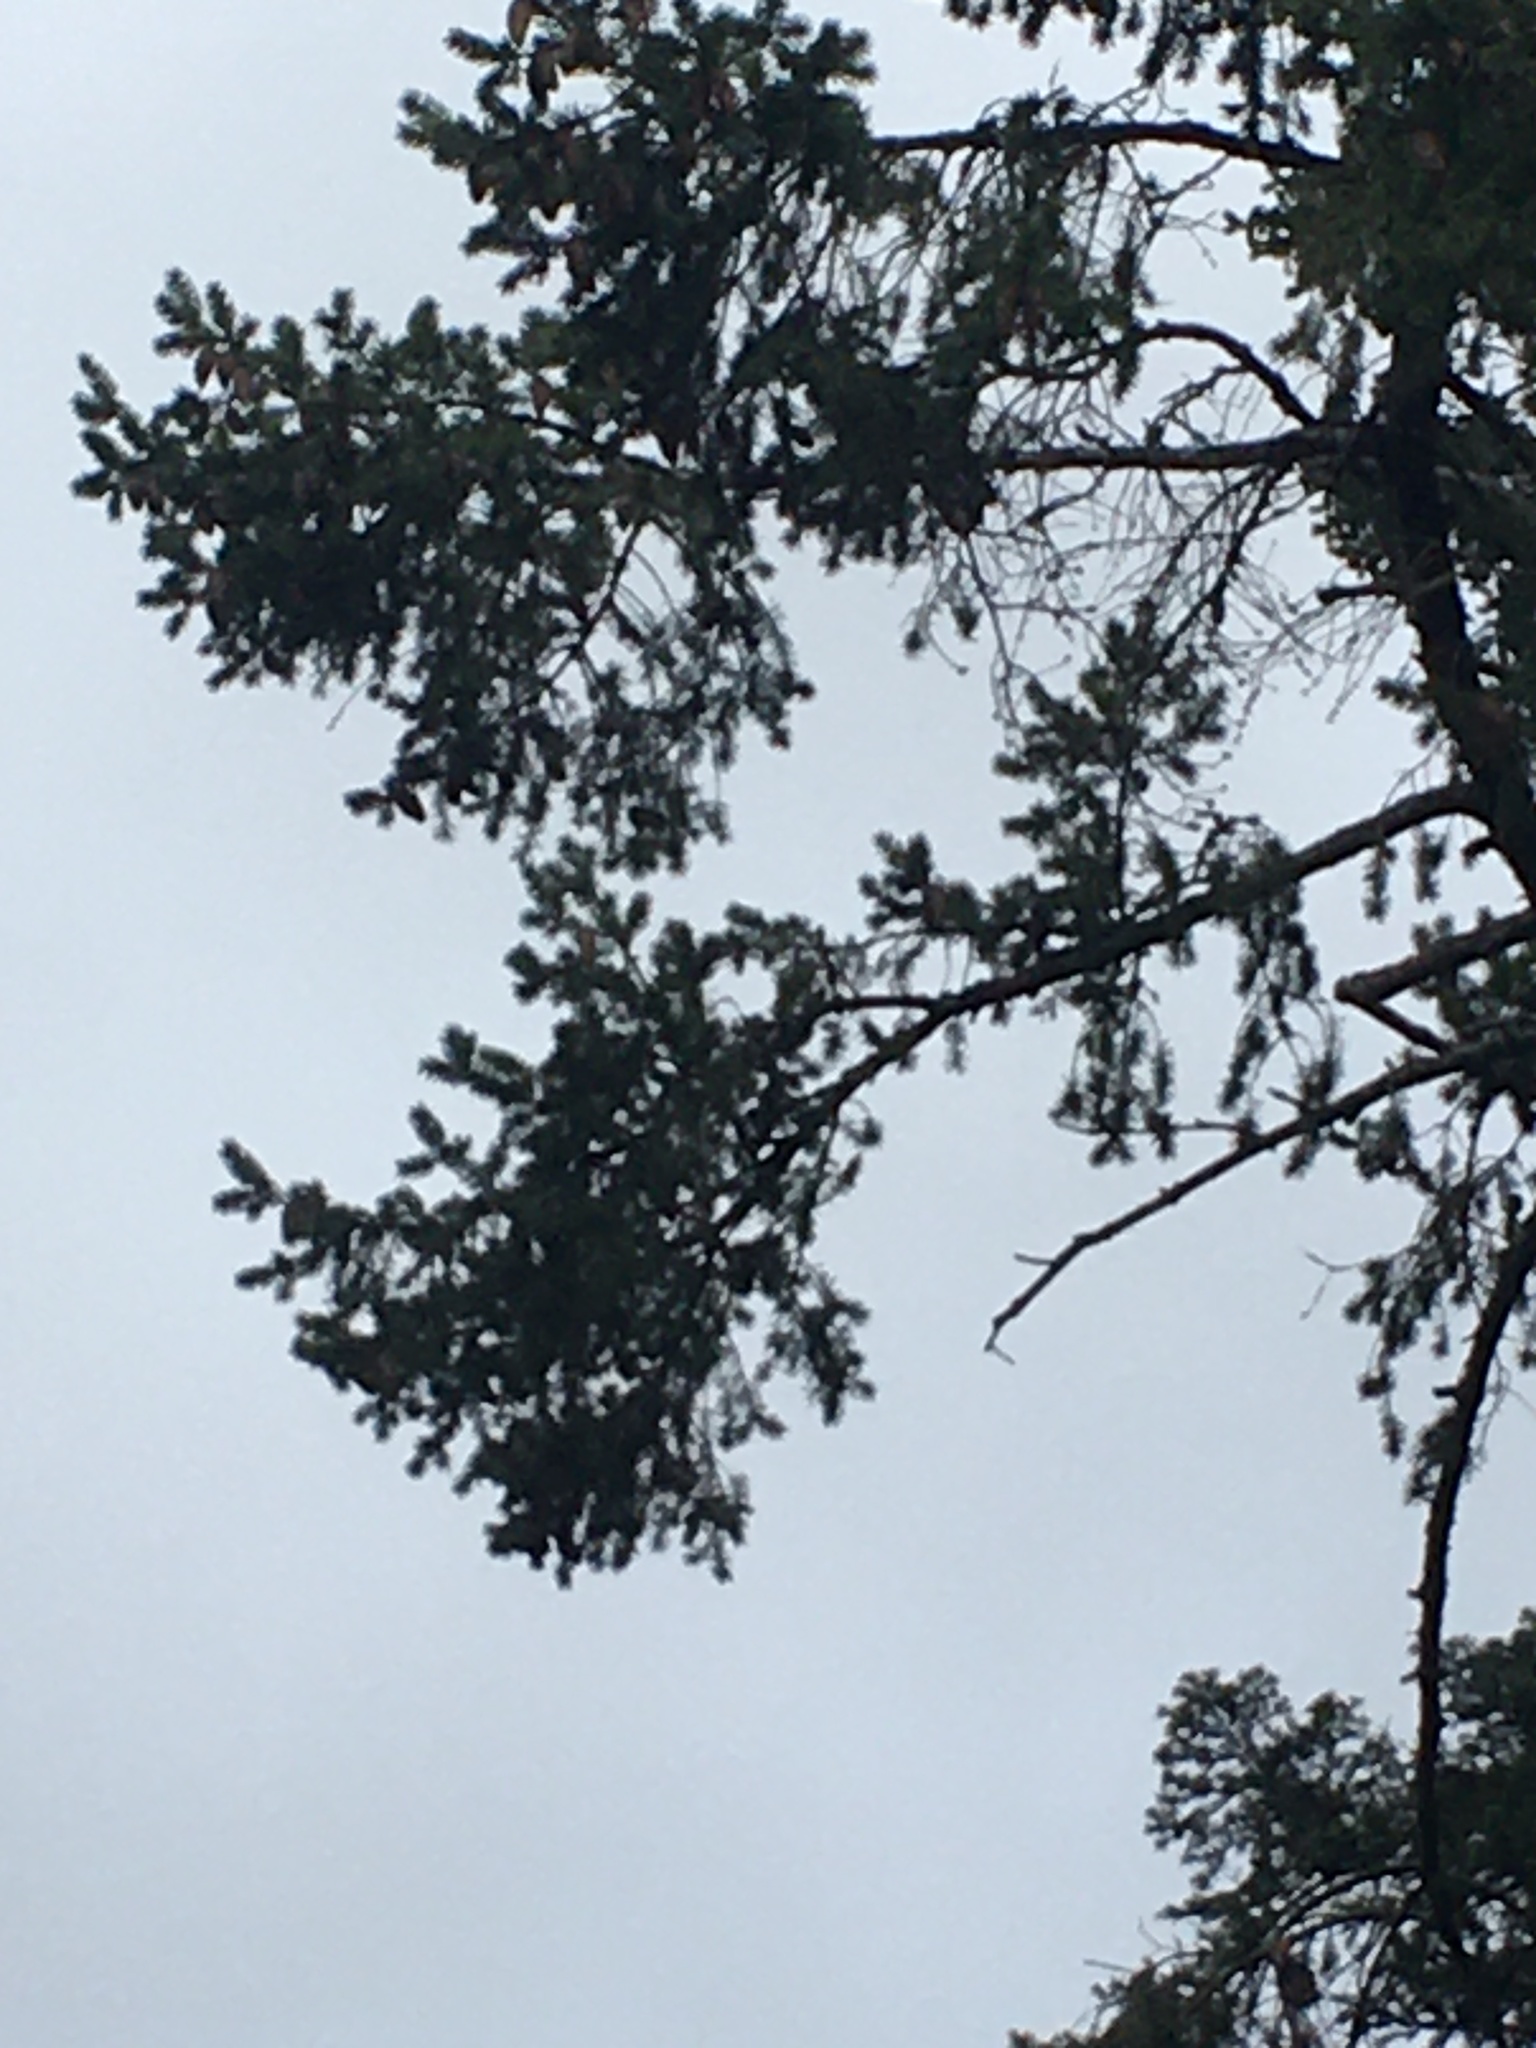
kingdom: Animalia
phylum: Chordata
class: Aves
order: Passeriformes
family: Corvidae
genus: Corvus
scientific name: Corvus brachyrhynchos
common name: American crow
